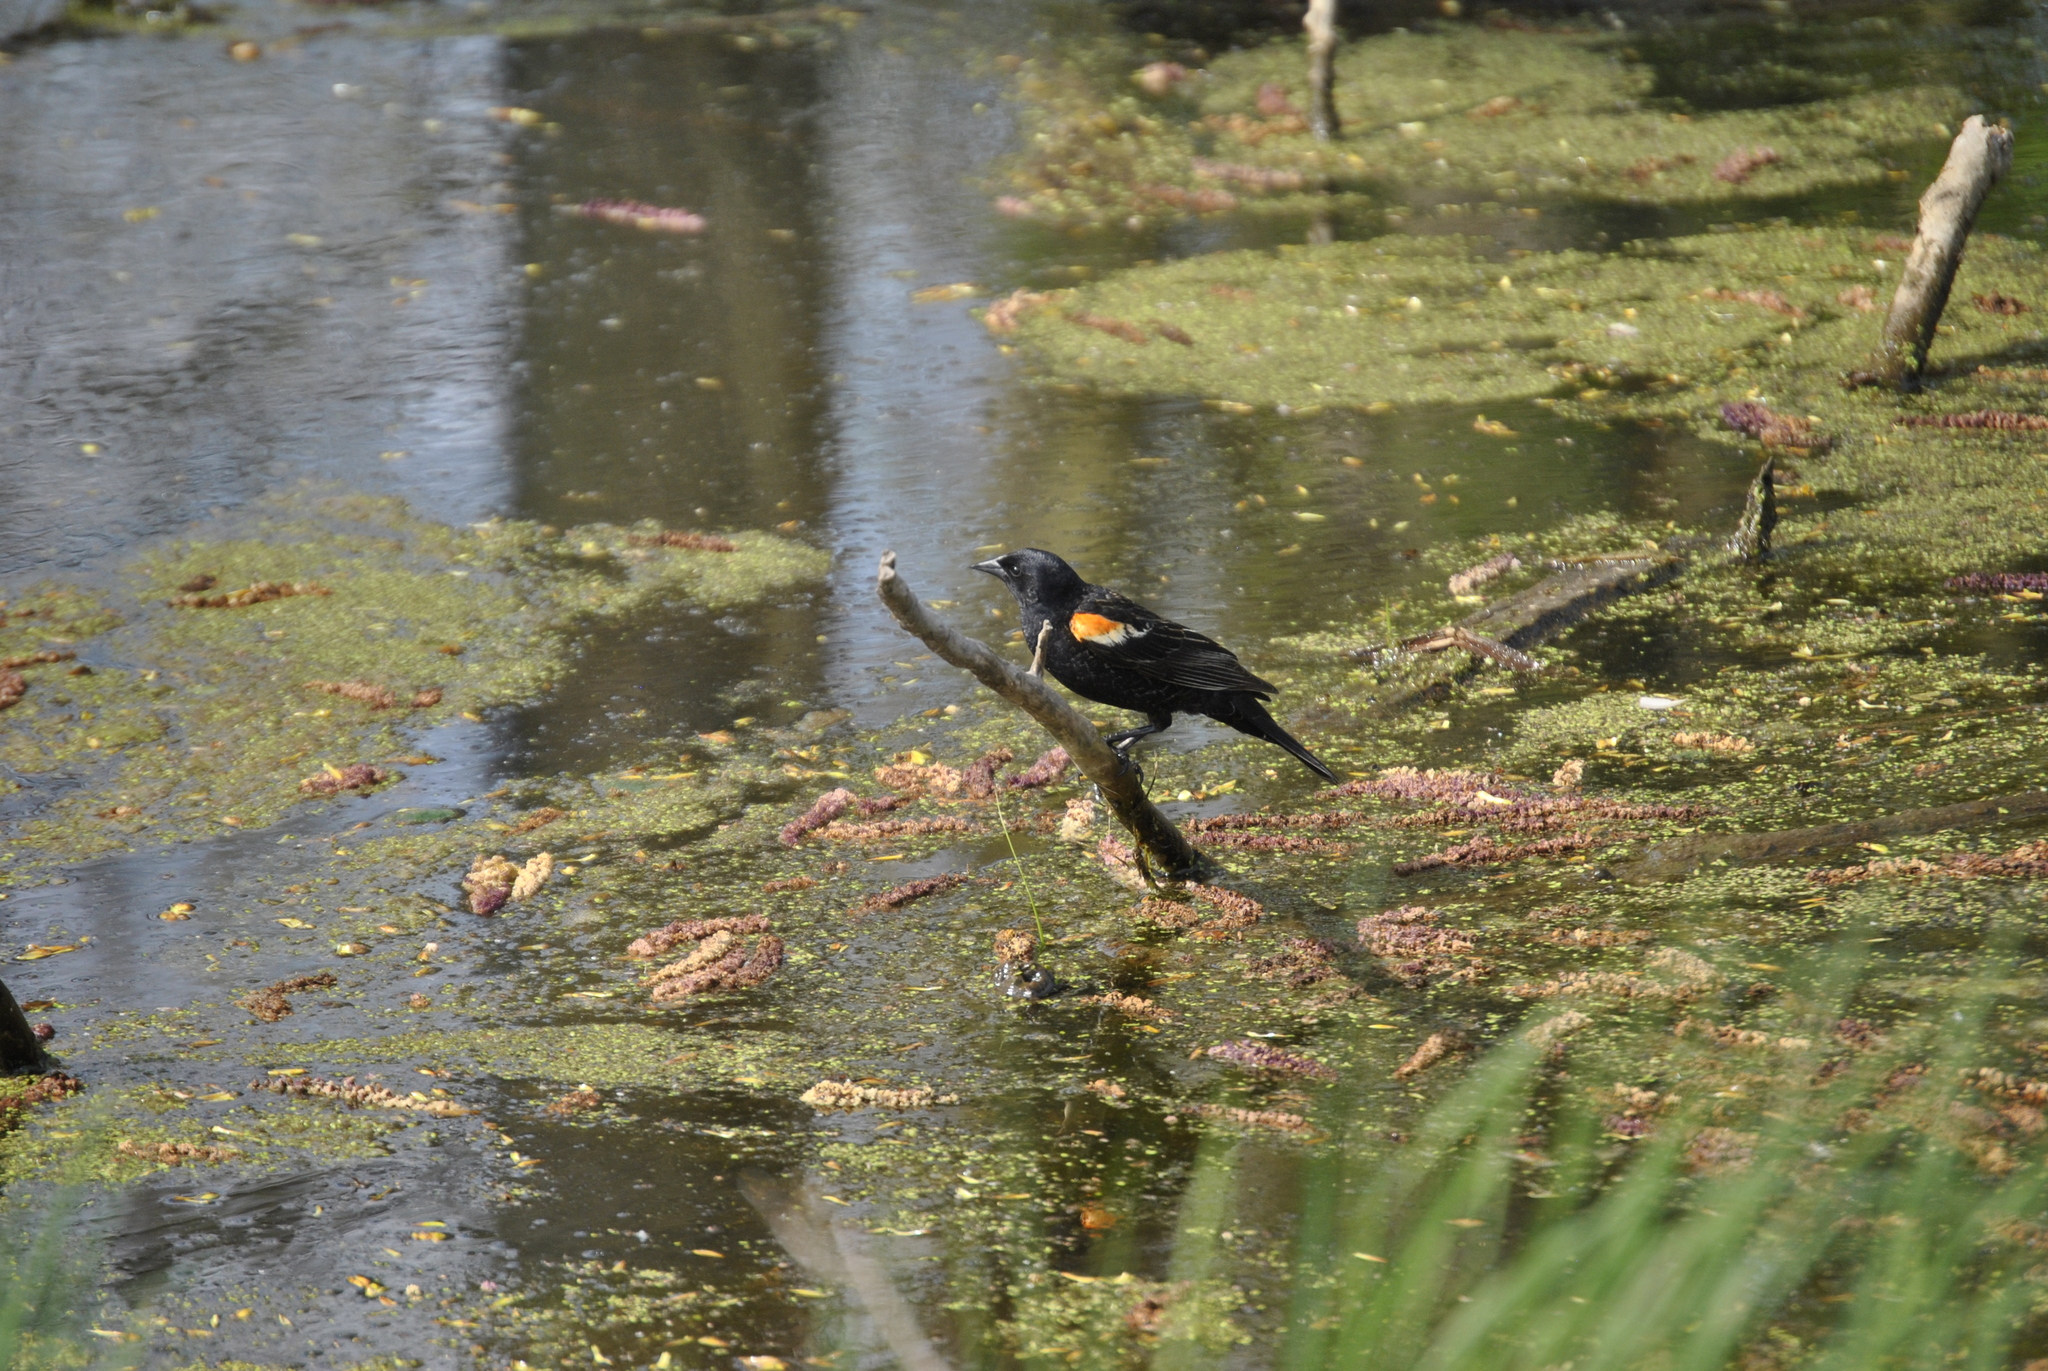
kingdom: Animalia
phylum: Chordata
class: Aves
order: Passeriformes
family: Icteridae
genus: Agelaius
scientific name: Agelaius phoeniceus
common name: Red-winged blackbird
